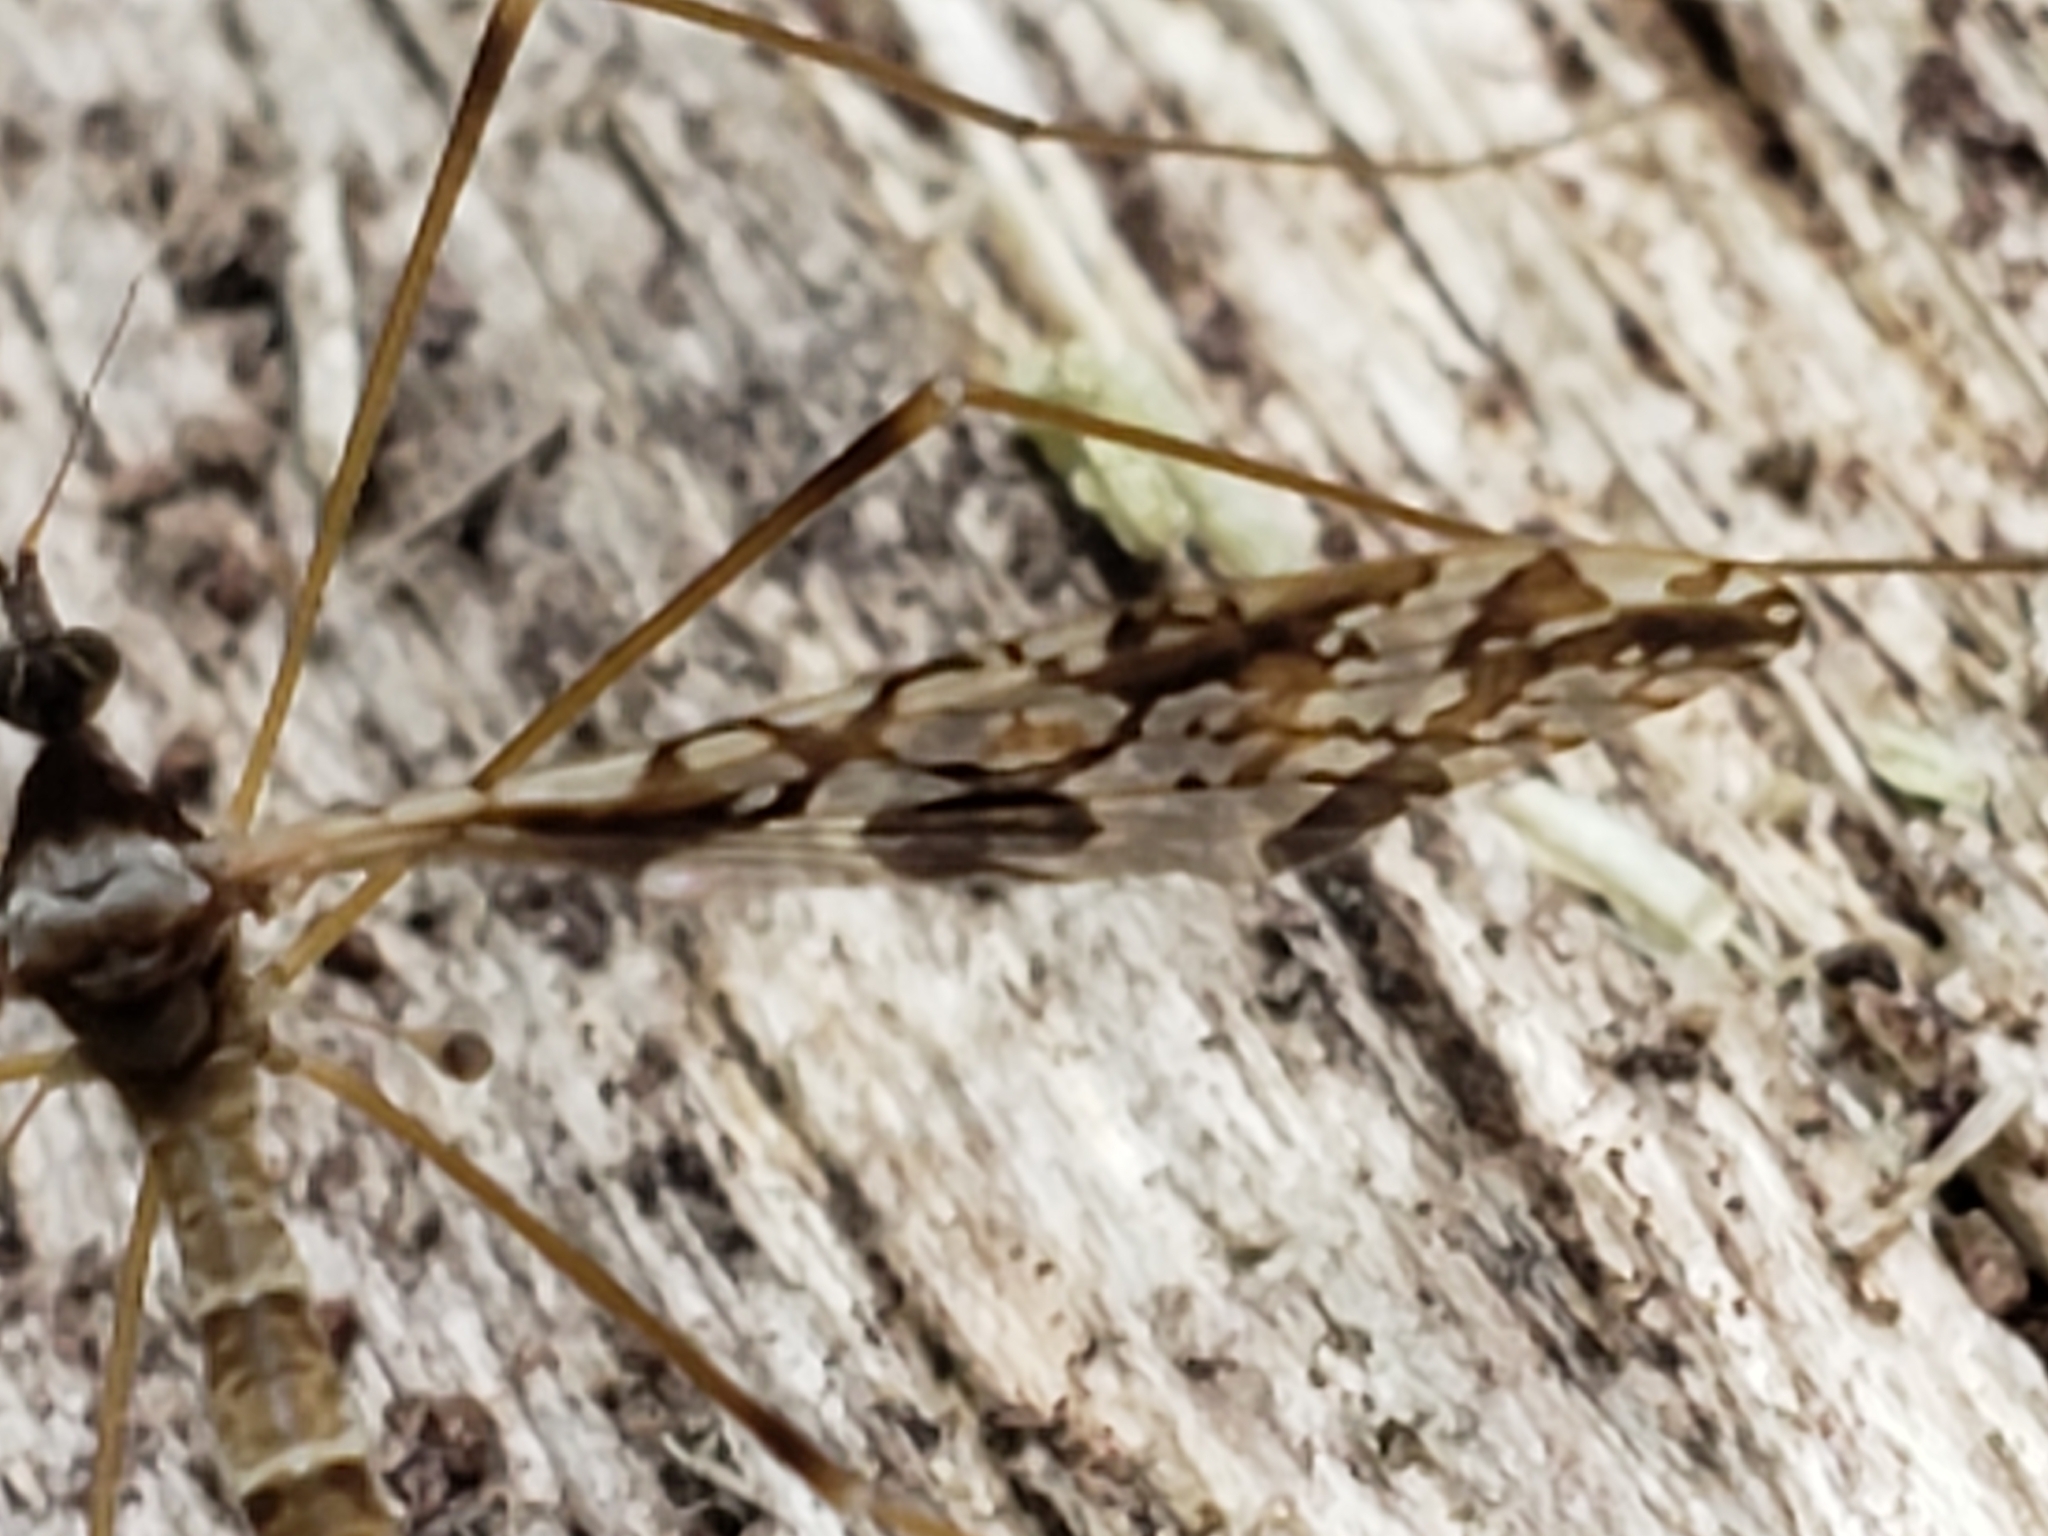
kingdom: Animalia
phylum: Arthropoda
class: Insecta
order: Diptera
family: Limoniidae
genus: Epiphragma
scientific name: Epiphragma solatrix
